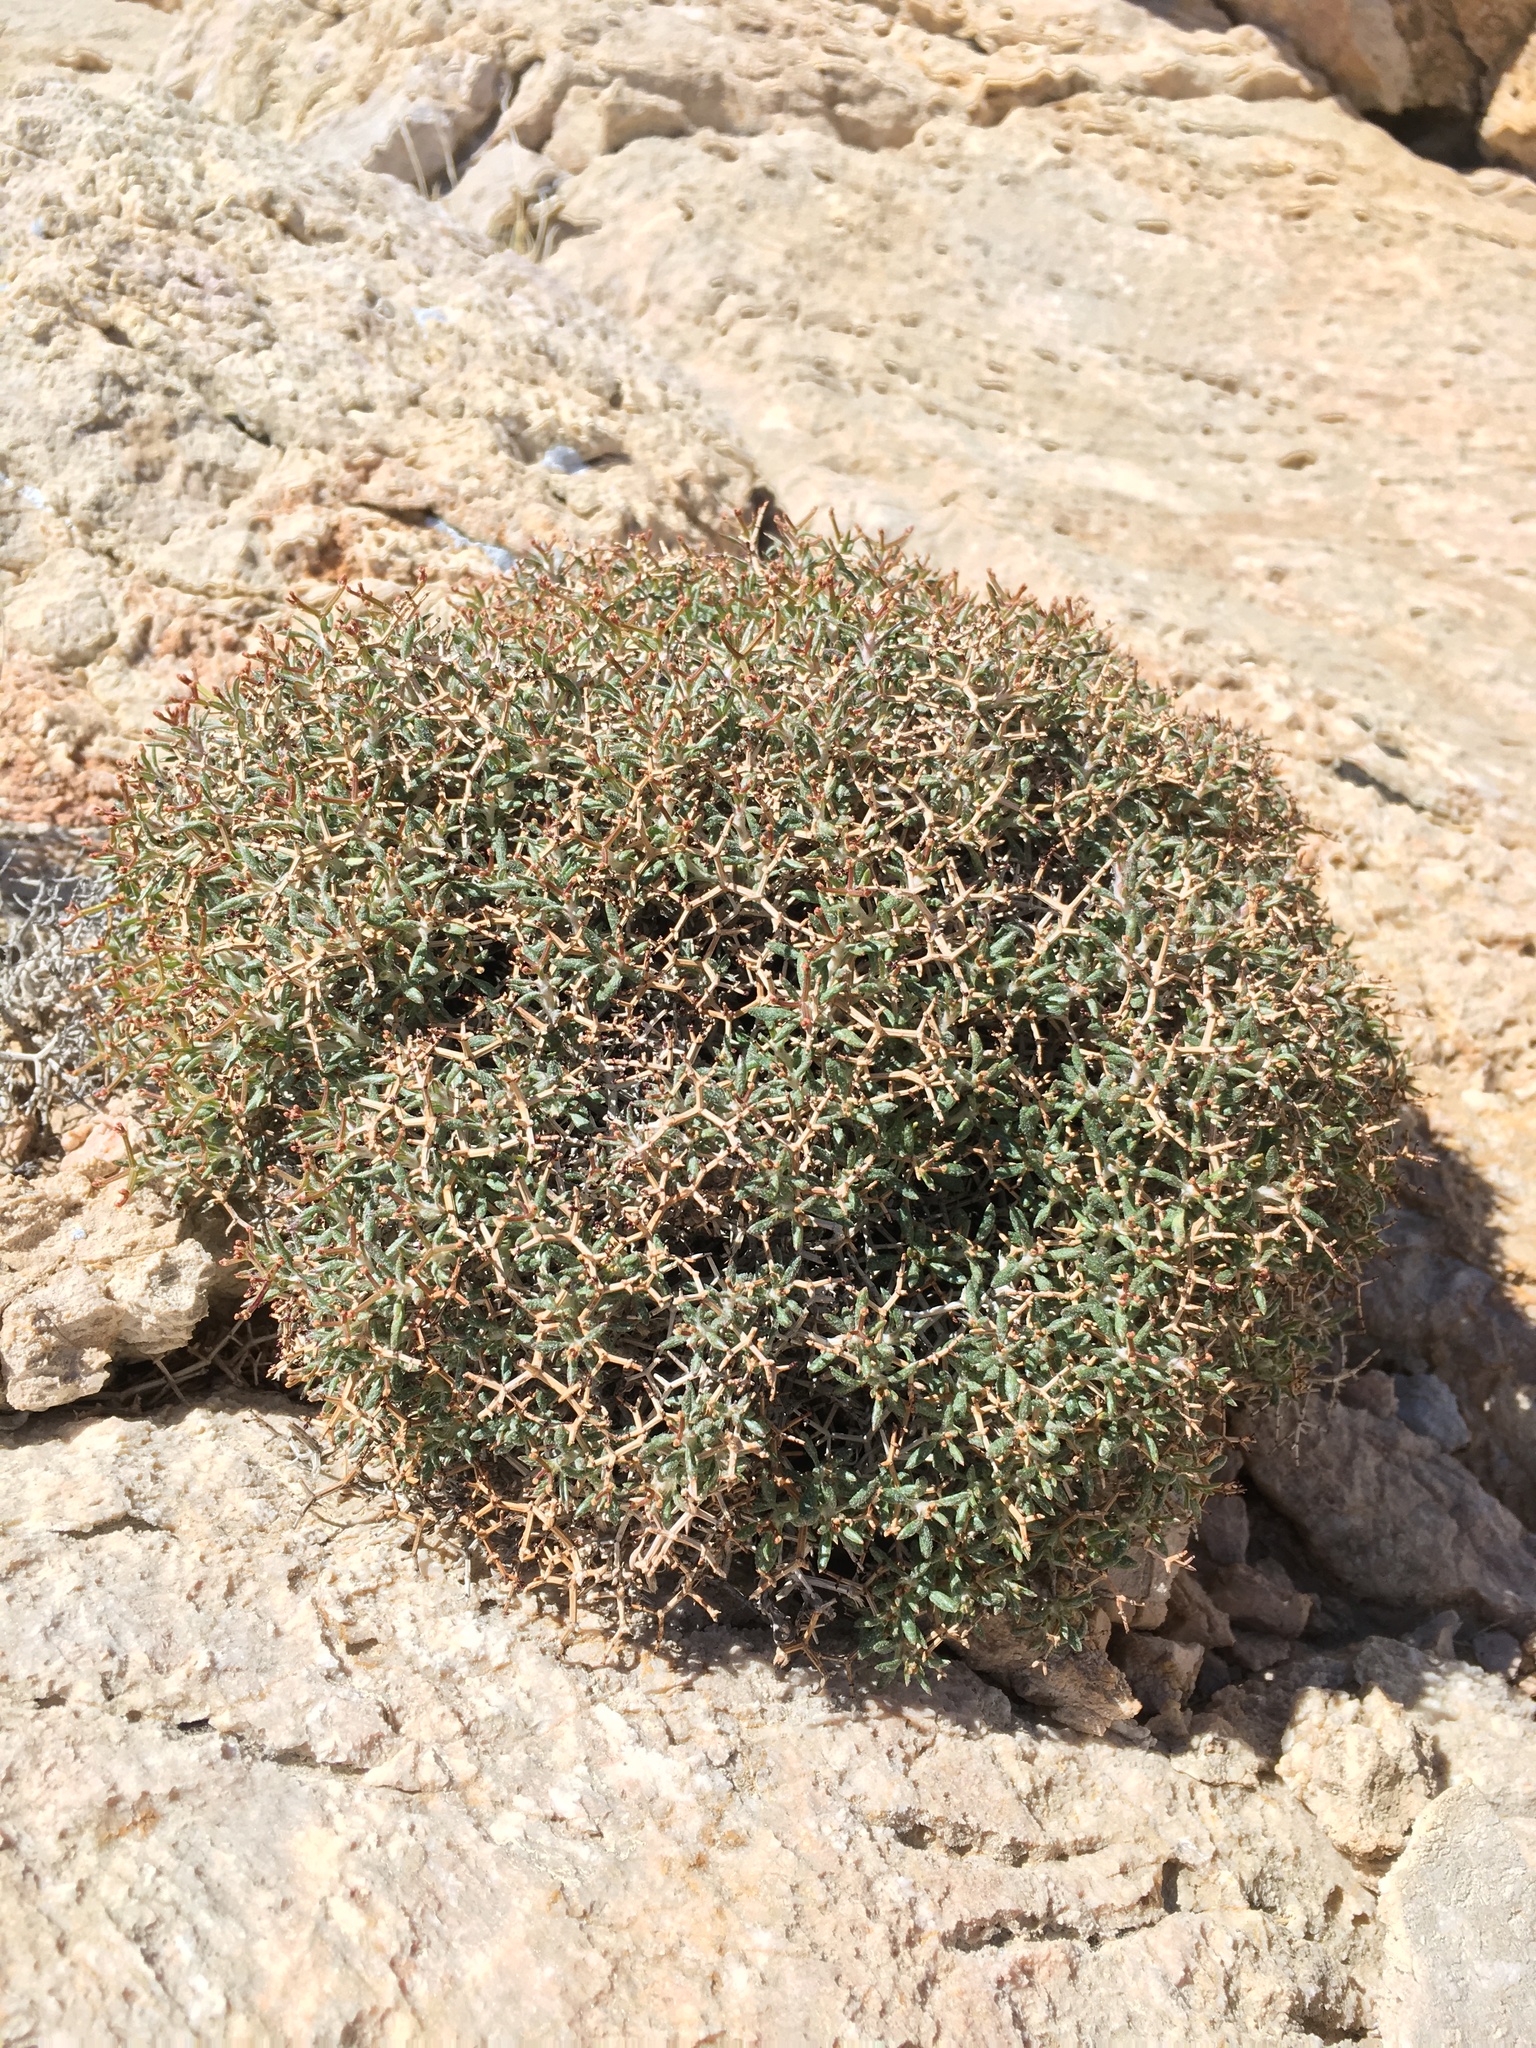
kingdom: Plantae
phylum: Tracheophyta
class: Magnoliopsida
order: Caryophyllales
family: Polygonaceae
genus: Eriogonum
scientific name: Eriogonum heermannii
